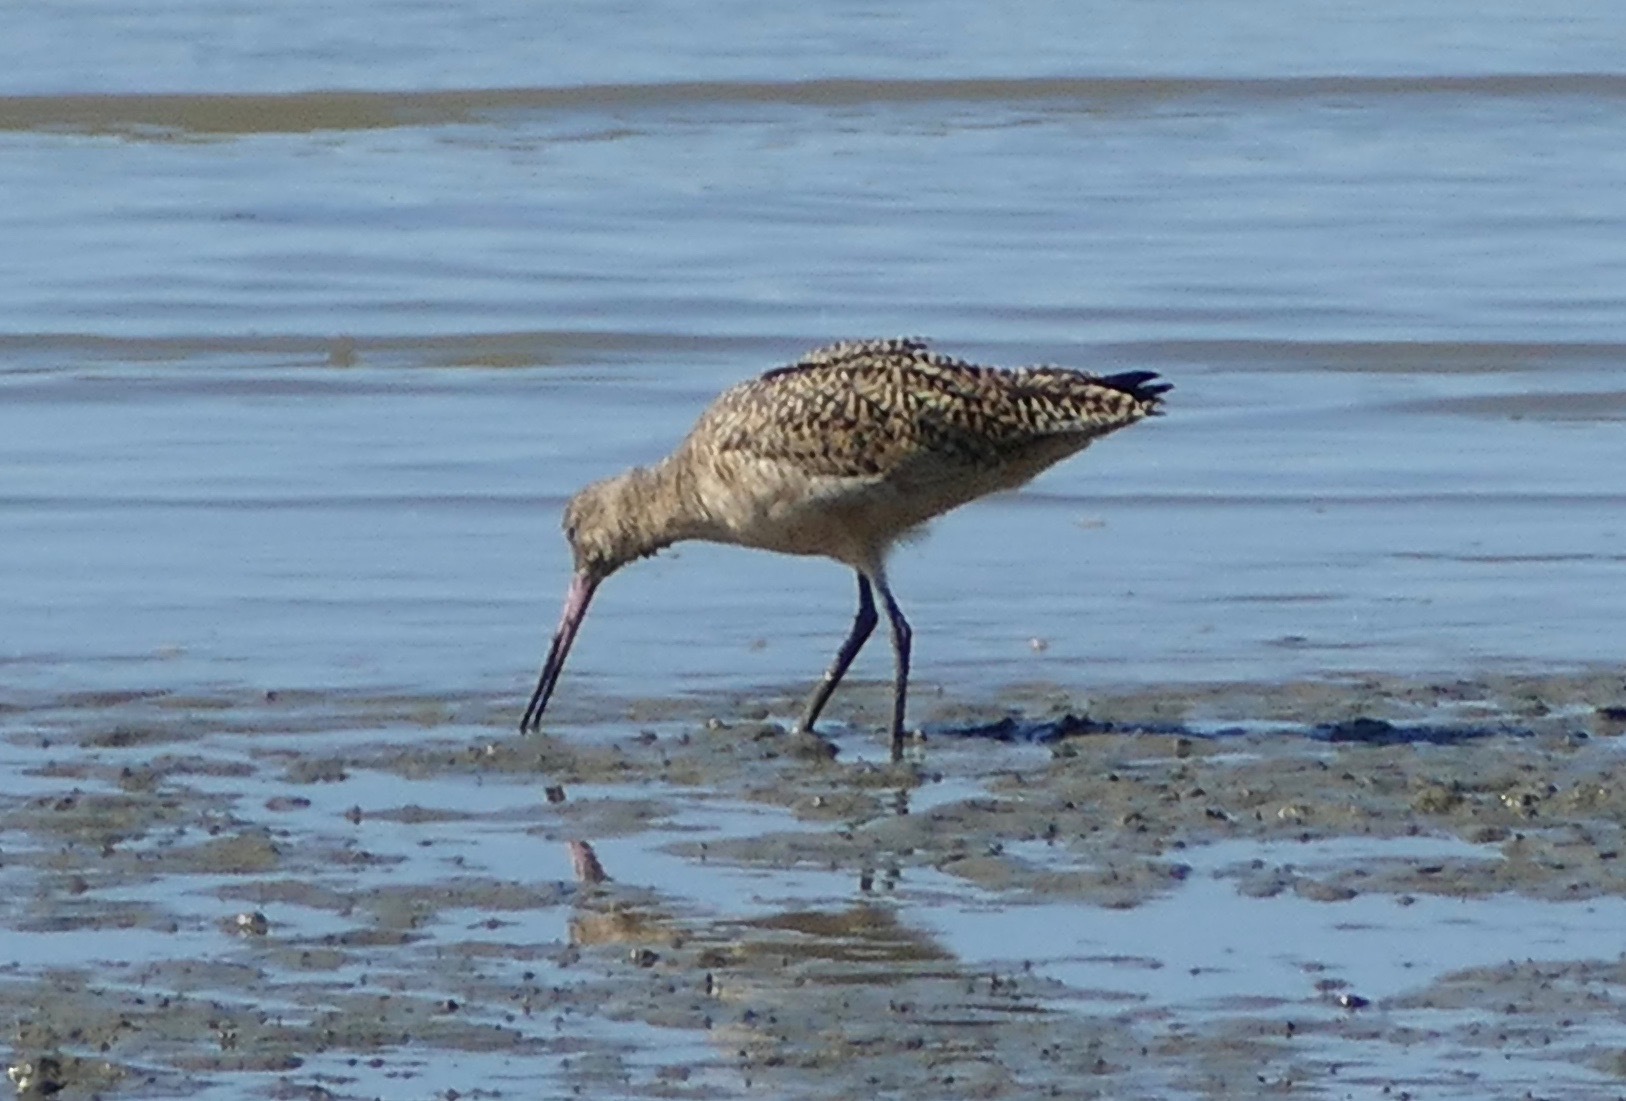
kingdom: Animalia
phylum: Chordata
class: Aves
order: Charadriiformes
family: Scolopacidae
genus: Limosa
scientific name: Limosa fedoa
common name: Marbled godwit
